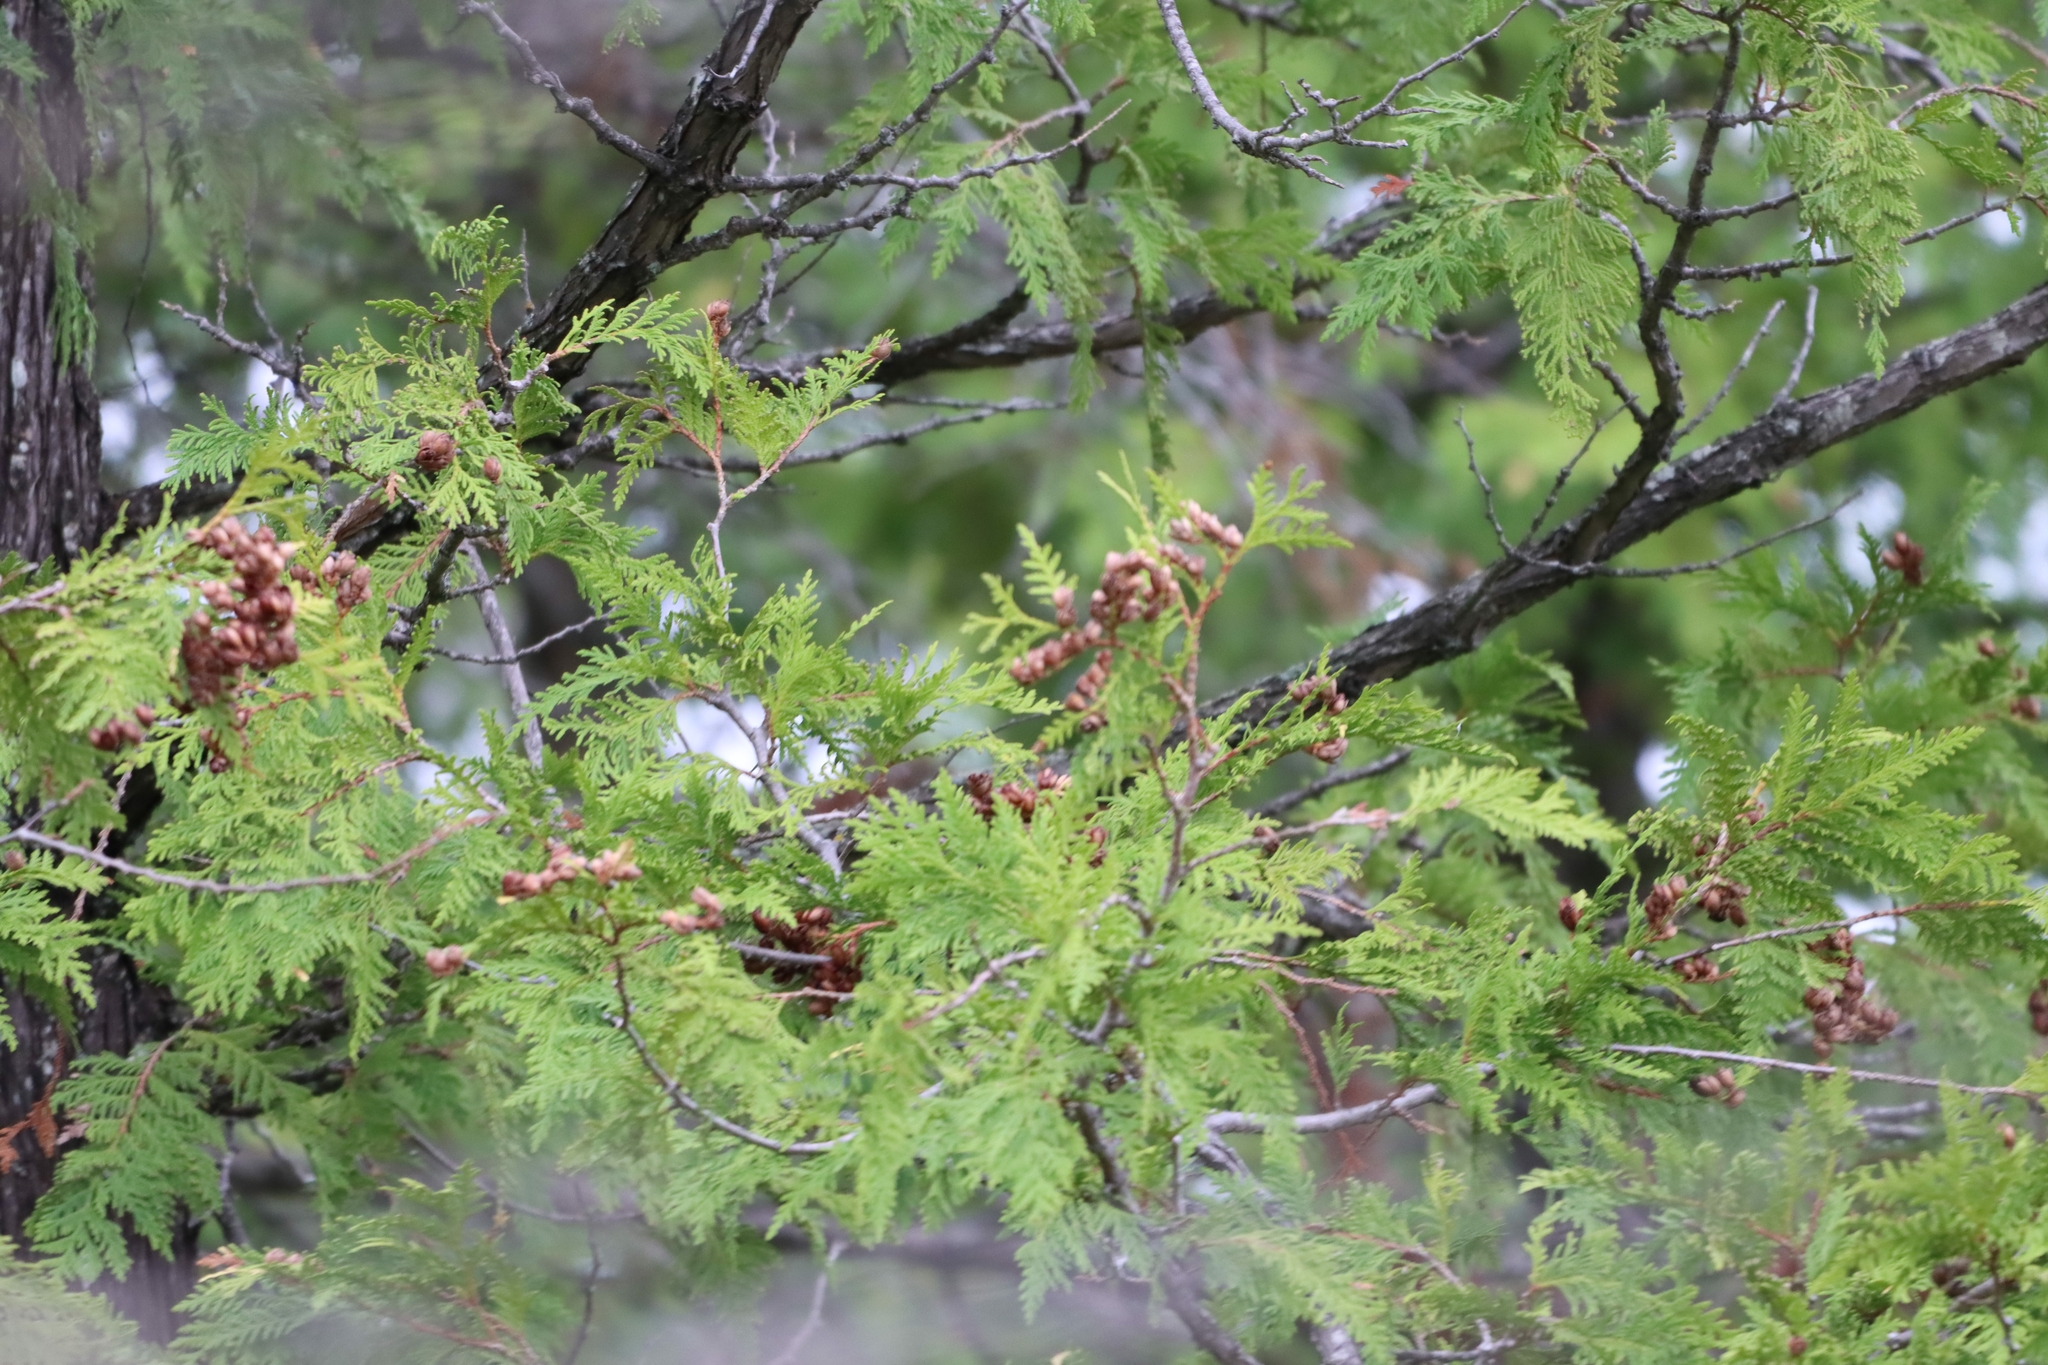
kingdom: Plantae
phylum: Tracheophyta
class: Pinopsida
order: Pinales
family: Cupressaceae
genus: Thuja
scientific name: Thuja occidentalis
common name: Northern white-cedar
